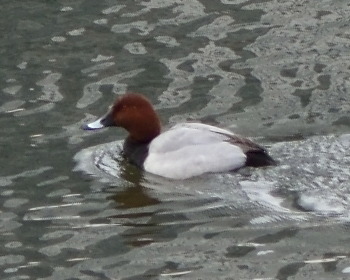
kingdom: Animalia
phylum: Chordata
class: Aves
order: Anseriformes
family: Anatidae
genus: Aythya
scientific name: Aythya ferina
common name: Common pochard
